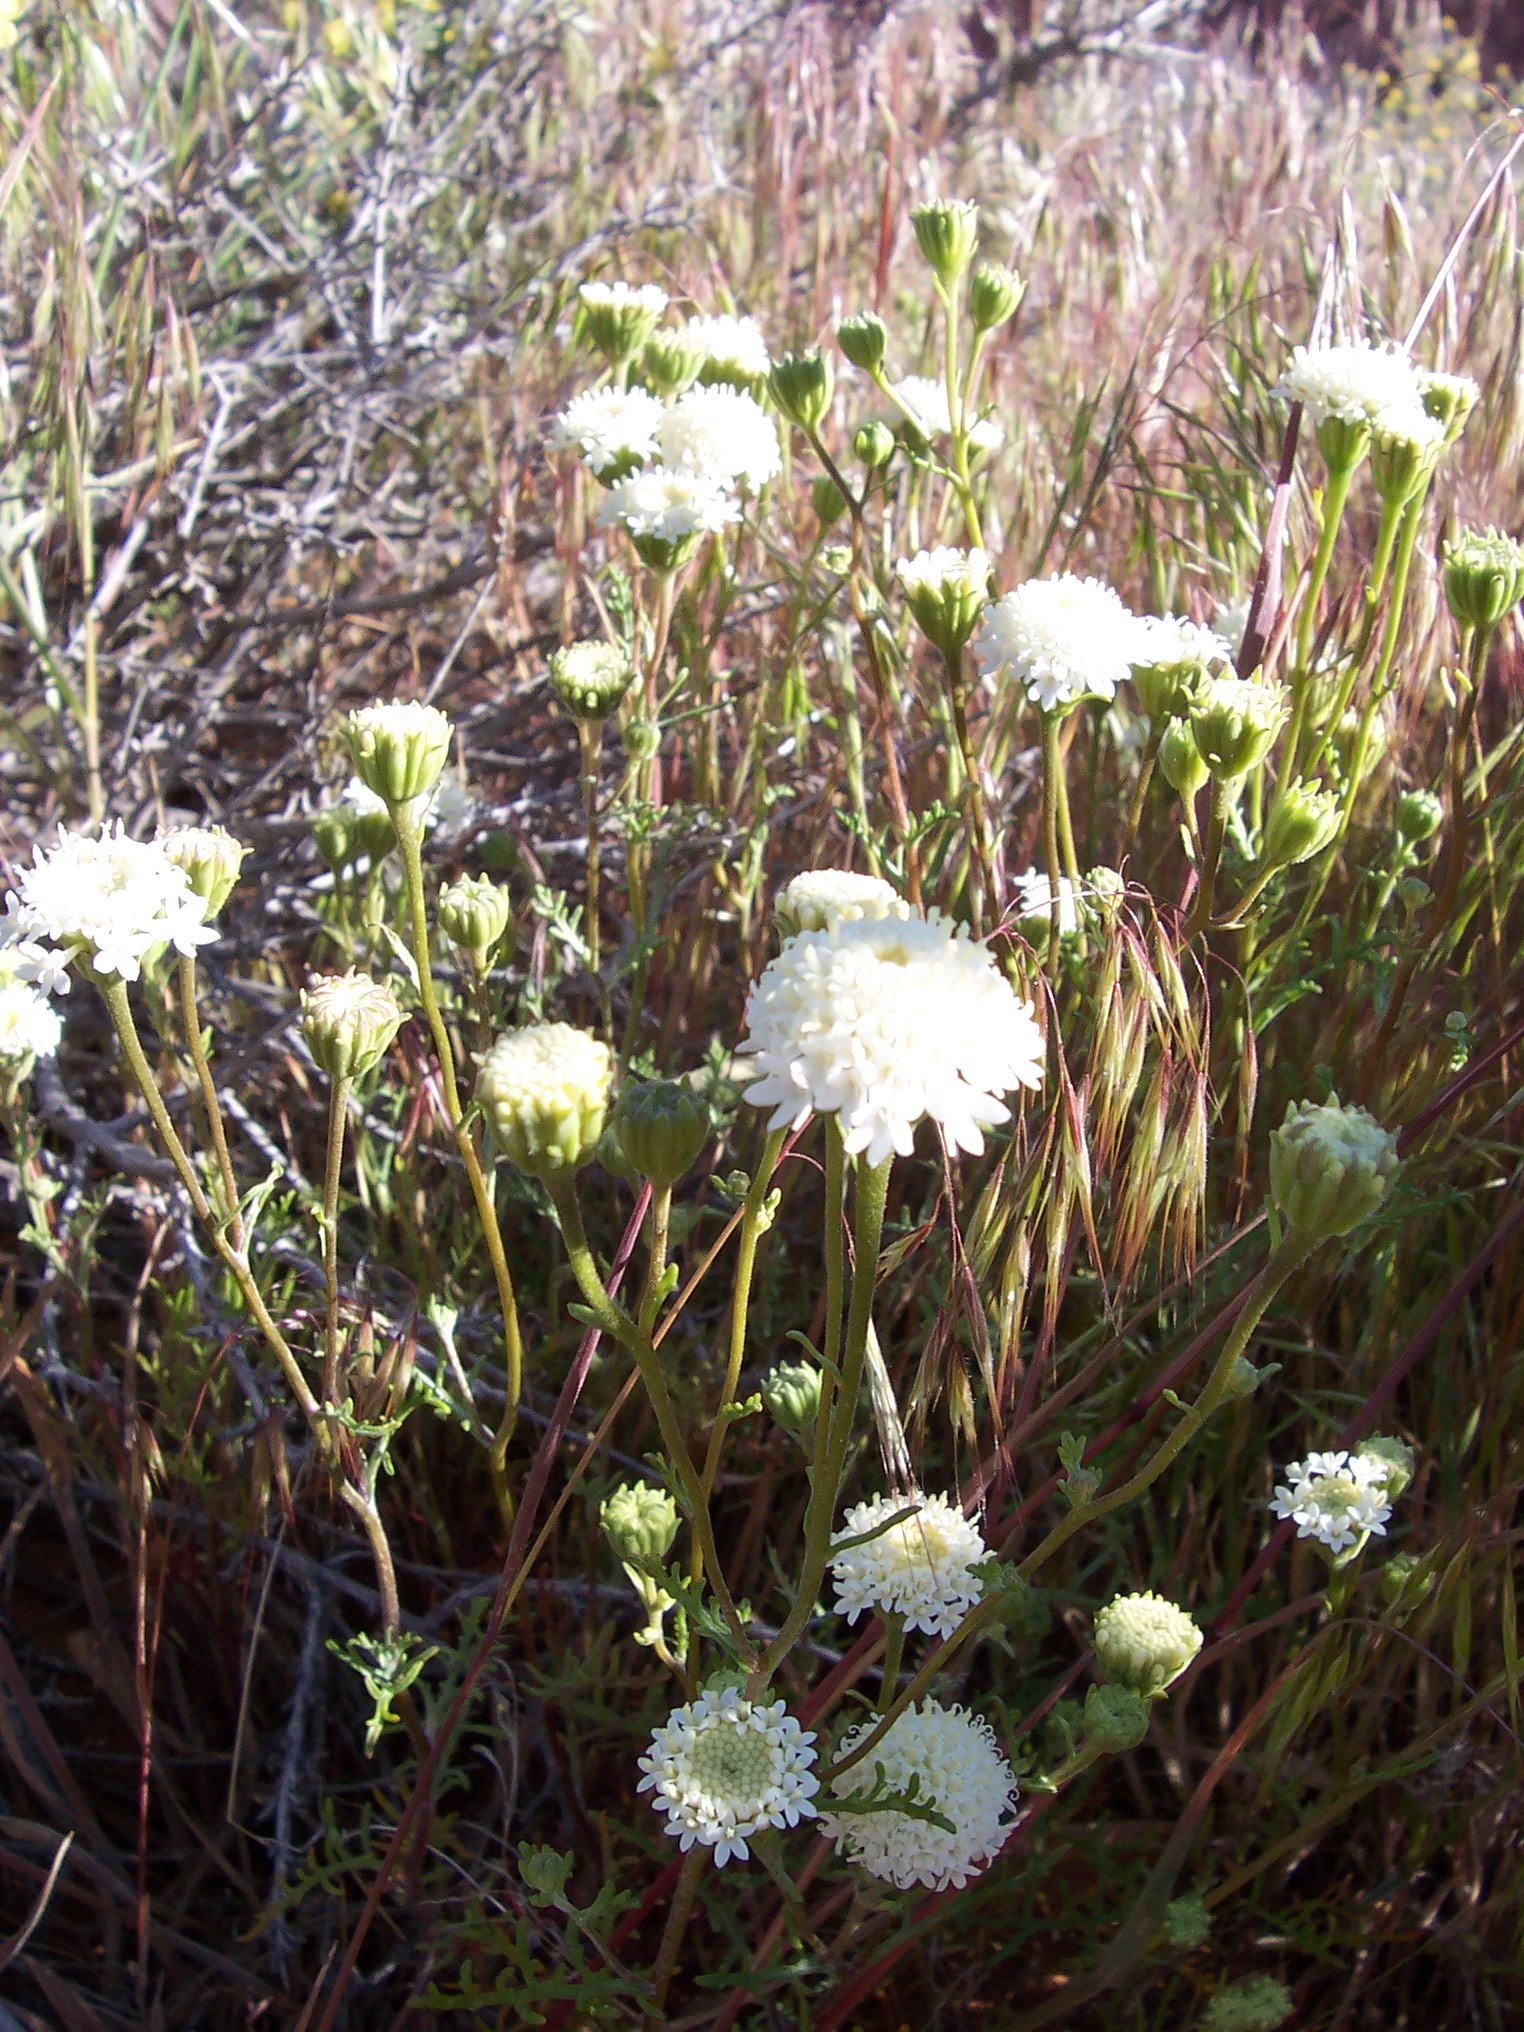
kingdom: Plantae
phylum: Tracheophyta
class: Magnoliopsida
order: Asterales
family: Asteraceae
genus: Chaenactis
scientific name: Chaenactis stevioides
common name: Desert pincushion
